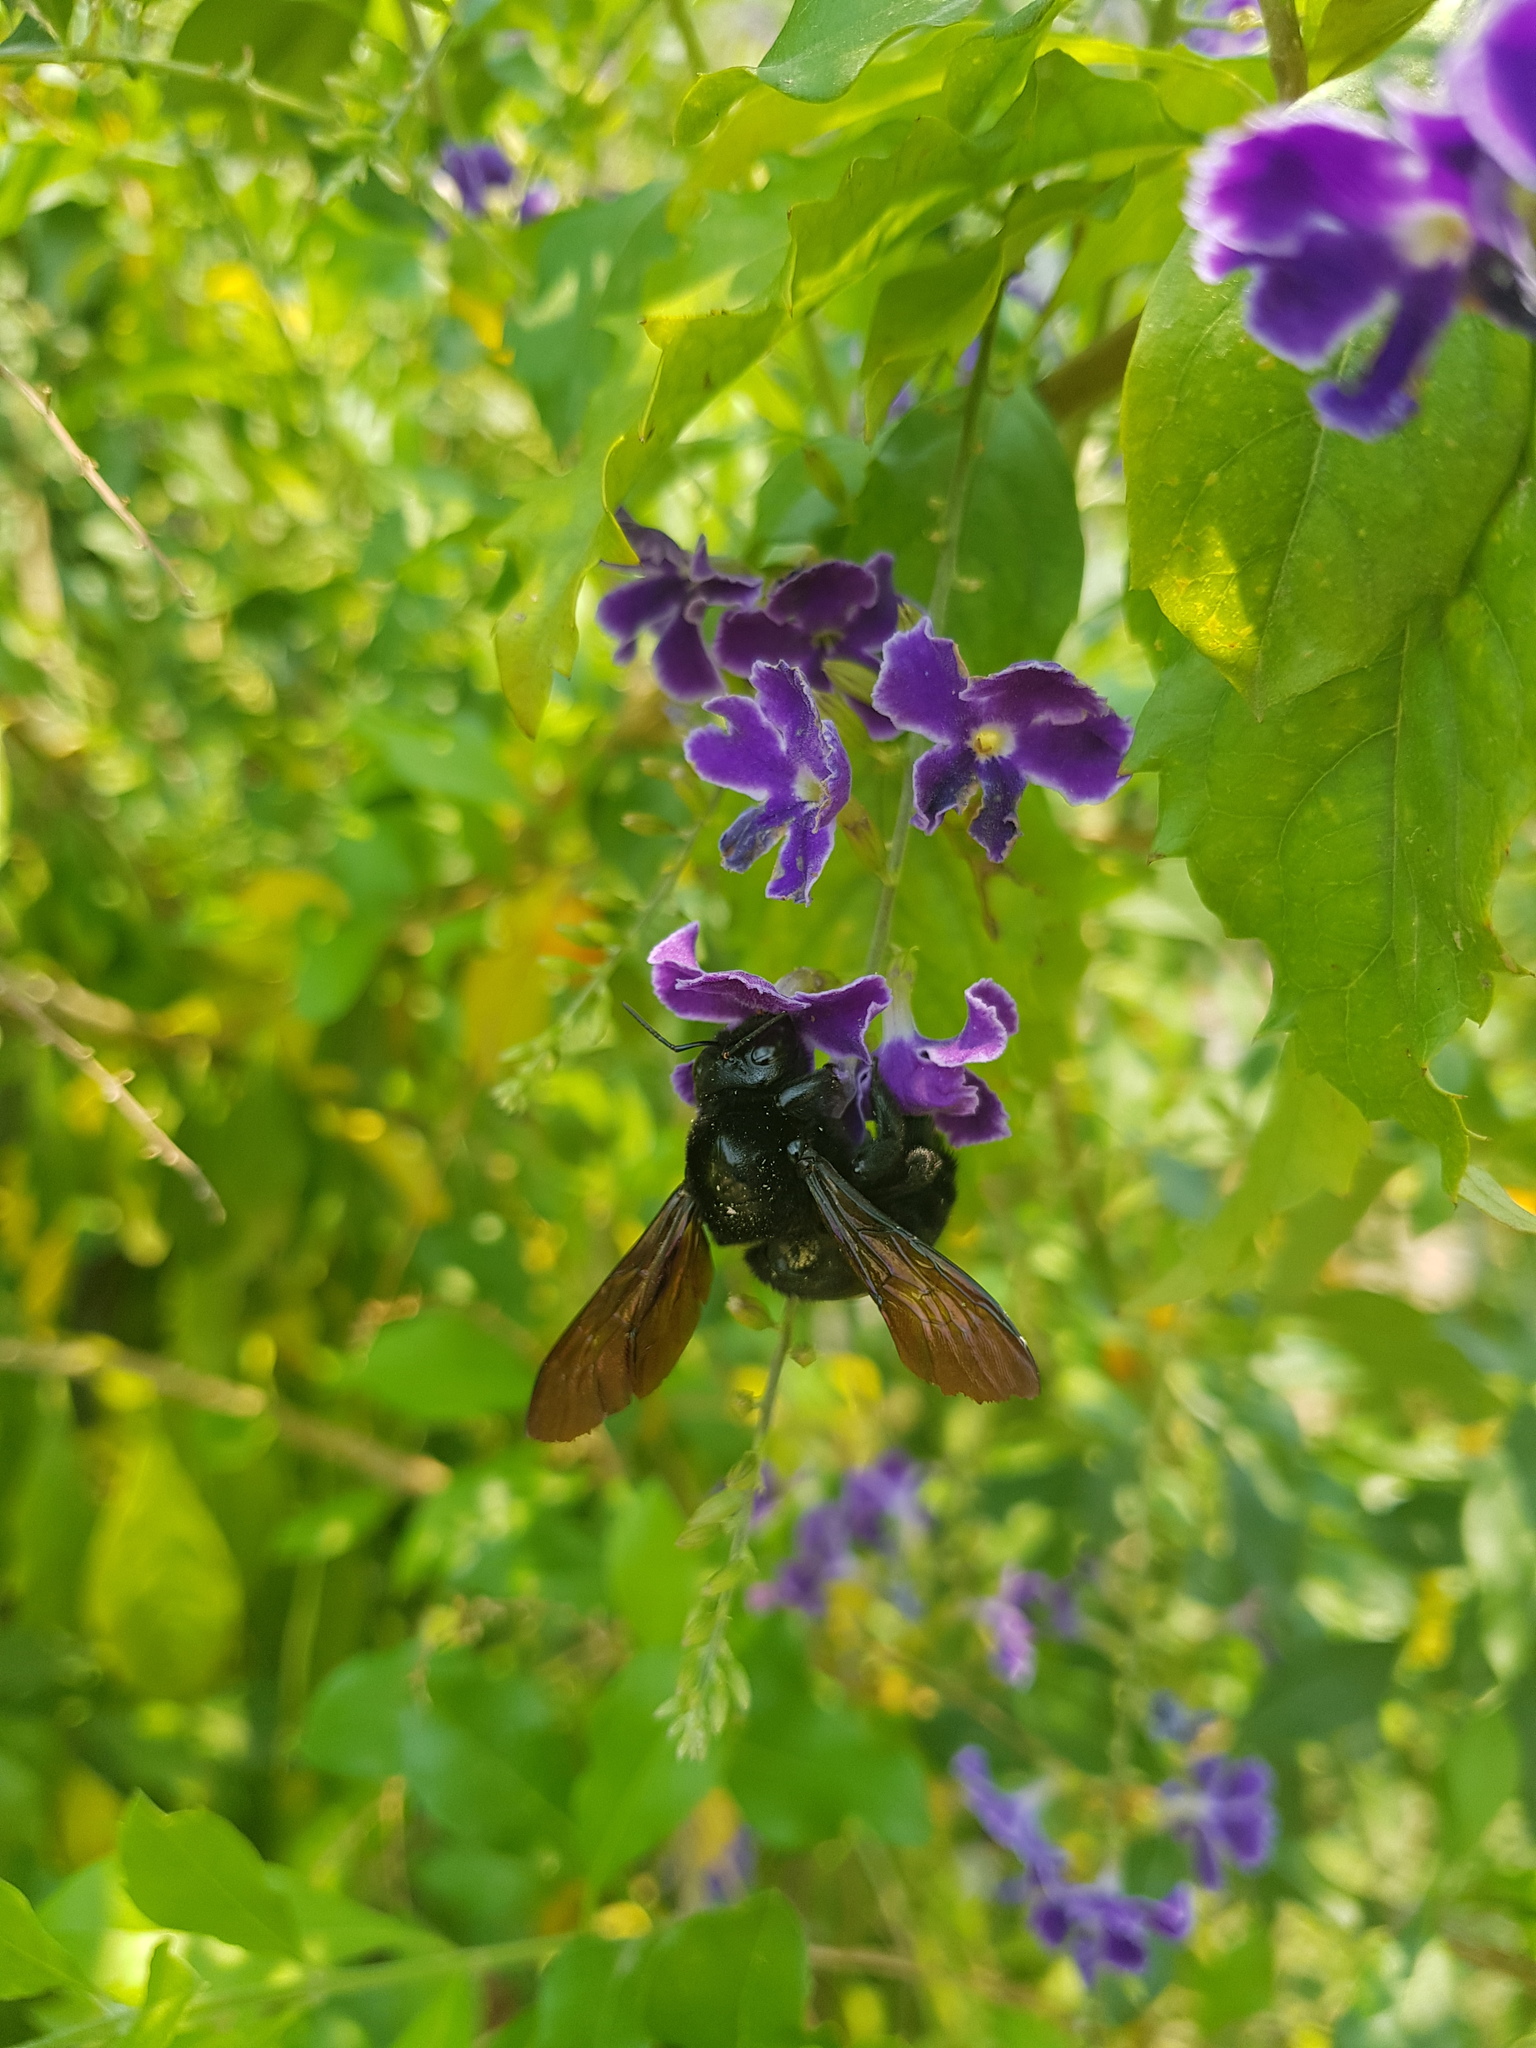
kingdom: Animalia
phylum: Arthropoda
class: Insecta
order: Hymenoptera
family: Apidae
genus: Xylocopa
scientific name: Xylocopa sonorina
